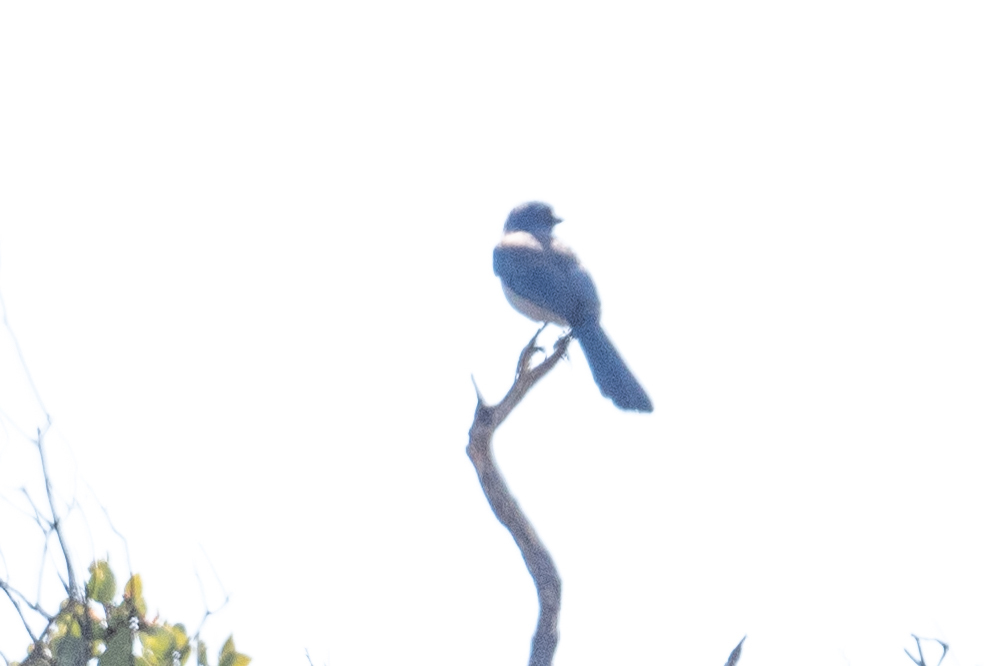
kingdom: Animalia
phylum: Chordata
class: Aves
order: Passeriformes
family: Corvidae
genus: Aphelocoma
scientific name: Aphelocoma californica
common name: California scrub-jay
